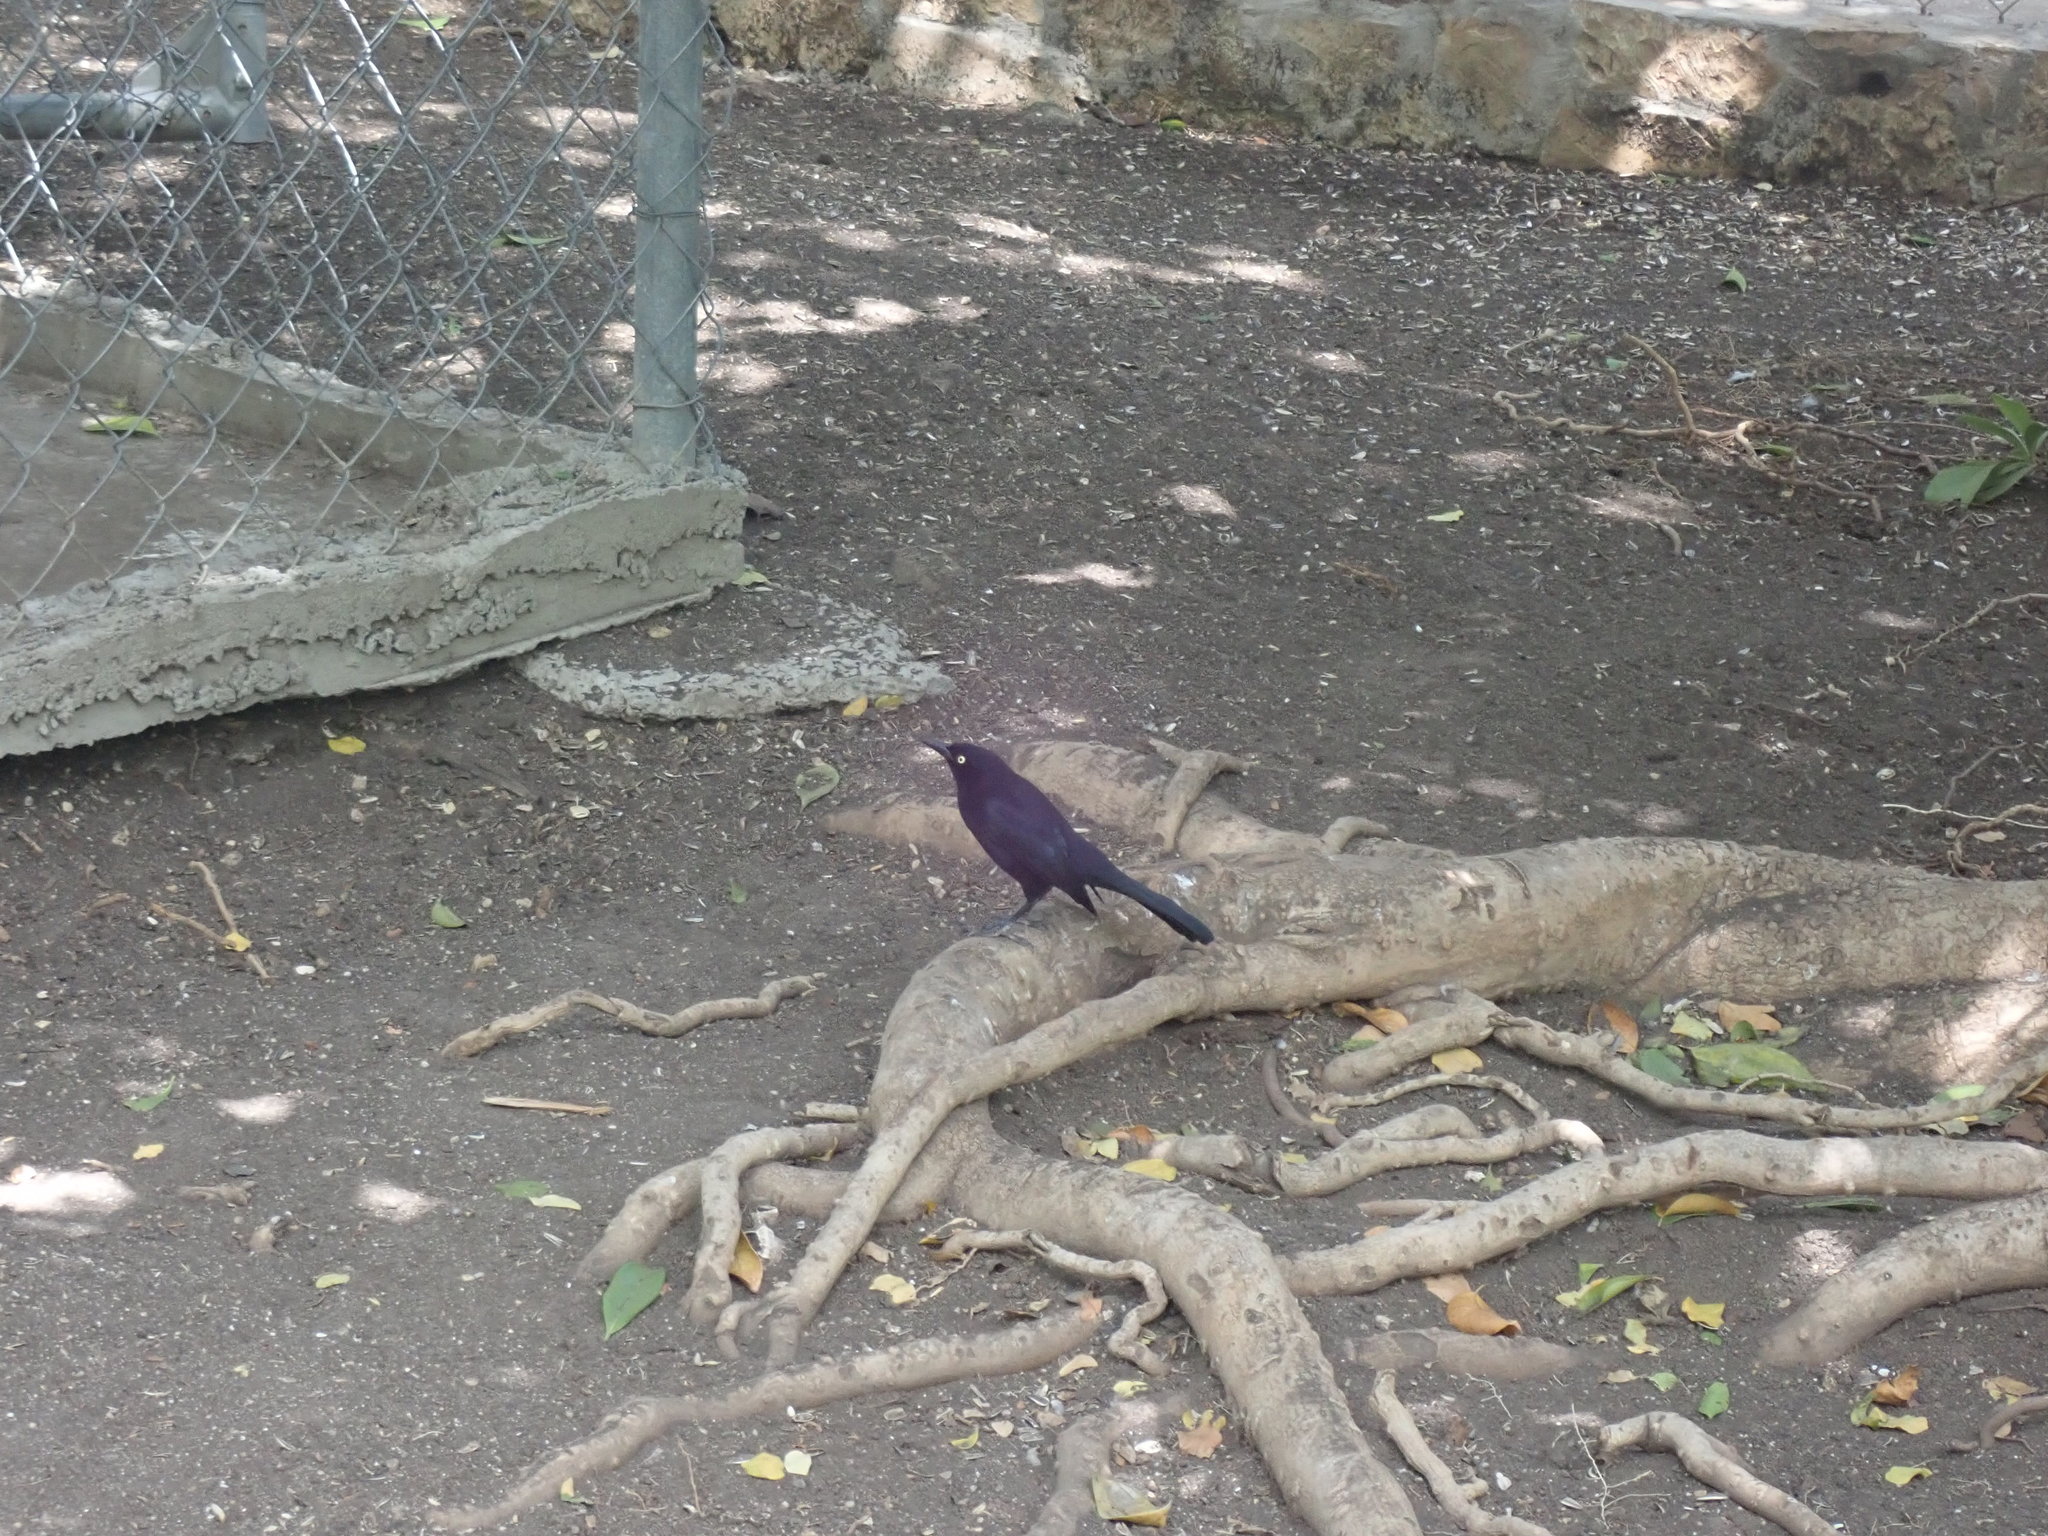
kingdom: Animalia
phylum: Chordata
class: Aves
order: Passeriformes
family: Icteridae
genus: Quiscalus
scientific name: Quiscalus lugubris
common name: Carib grackle
